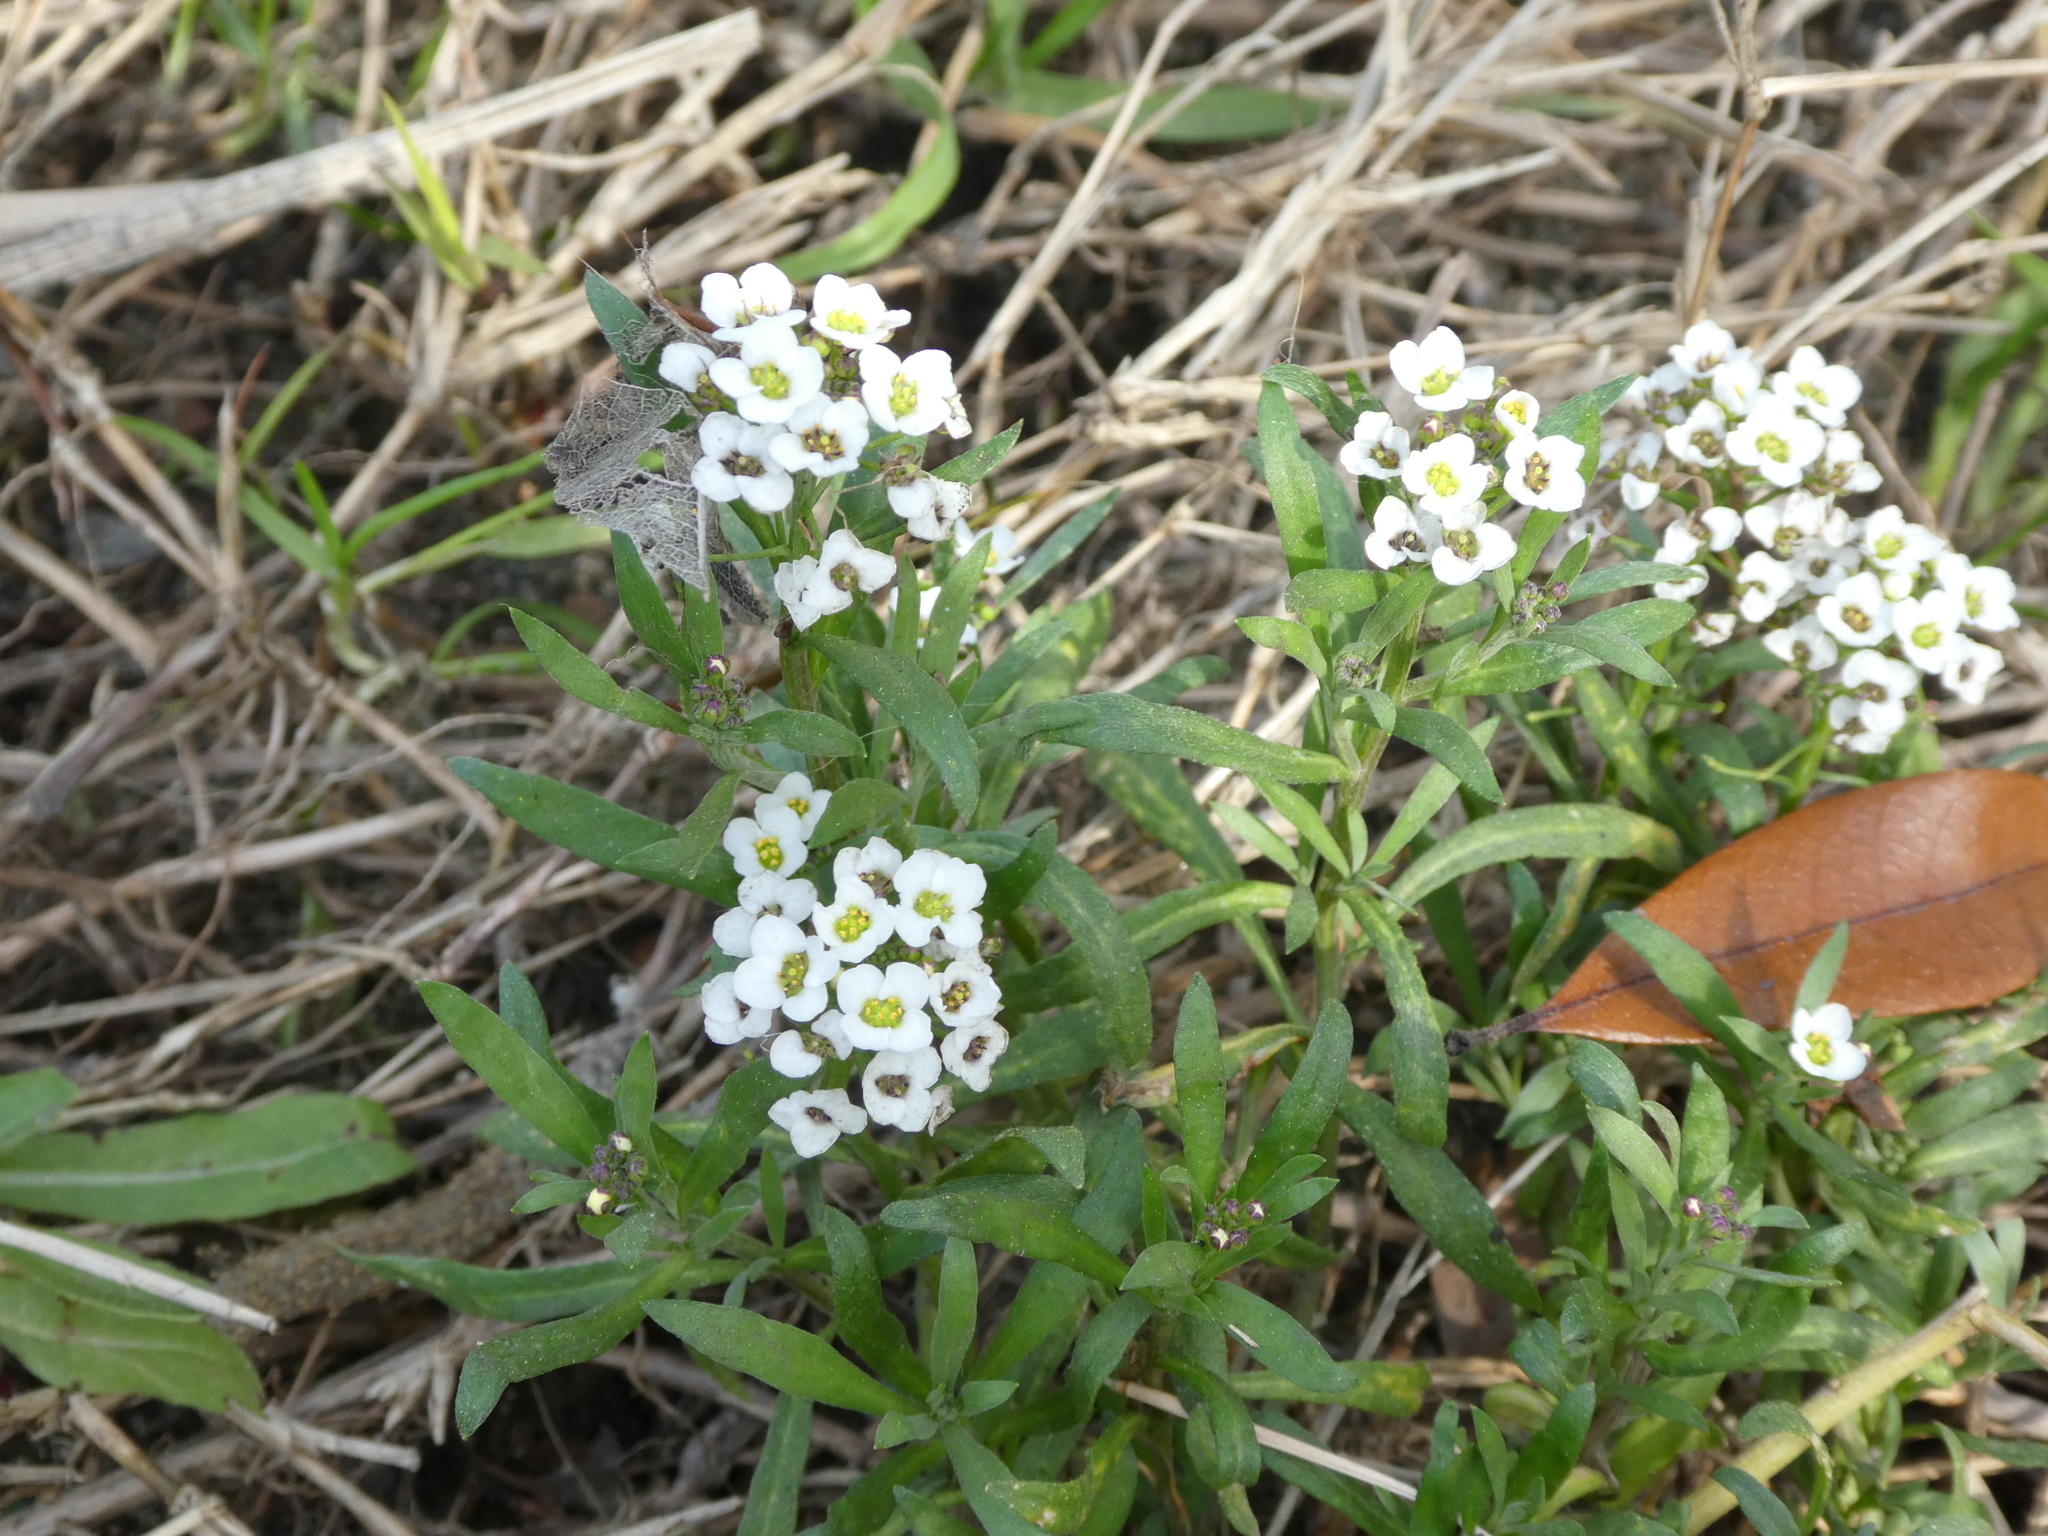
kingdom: Plantae
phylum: Tracheophyta
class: Magnoliopsida
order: Brassicales
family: Brassicaceae
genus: Lobularia
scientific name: Lobularia maritima
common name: Sweet alison
